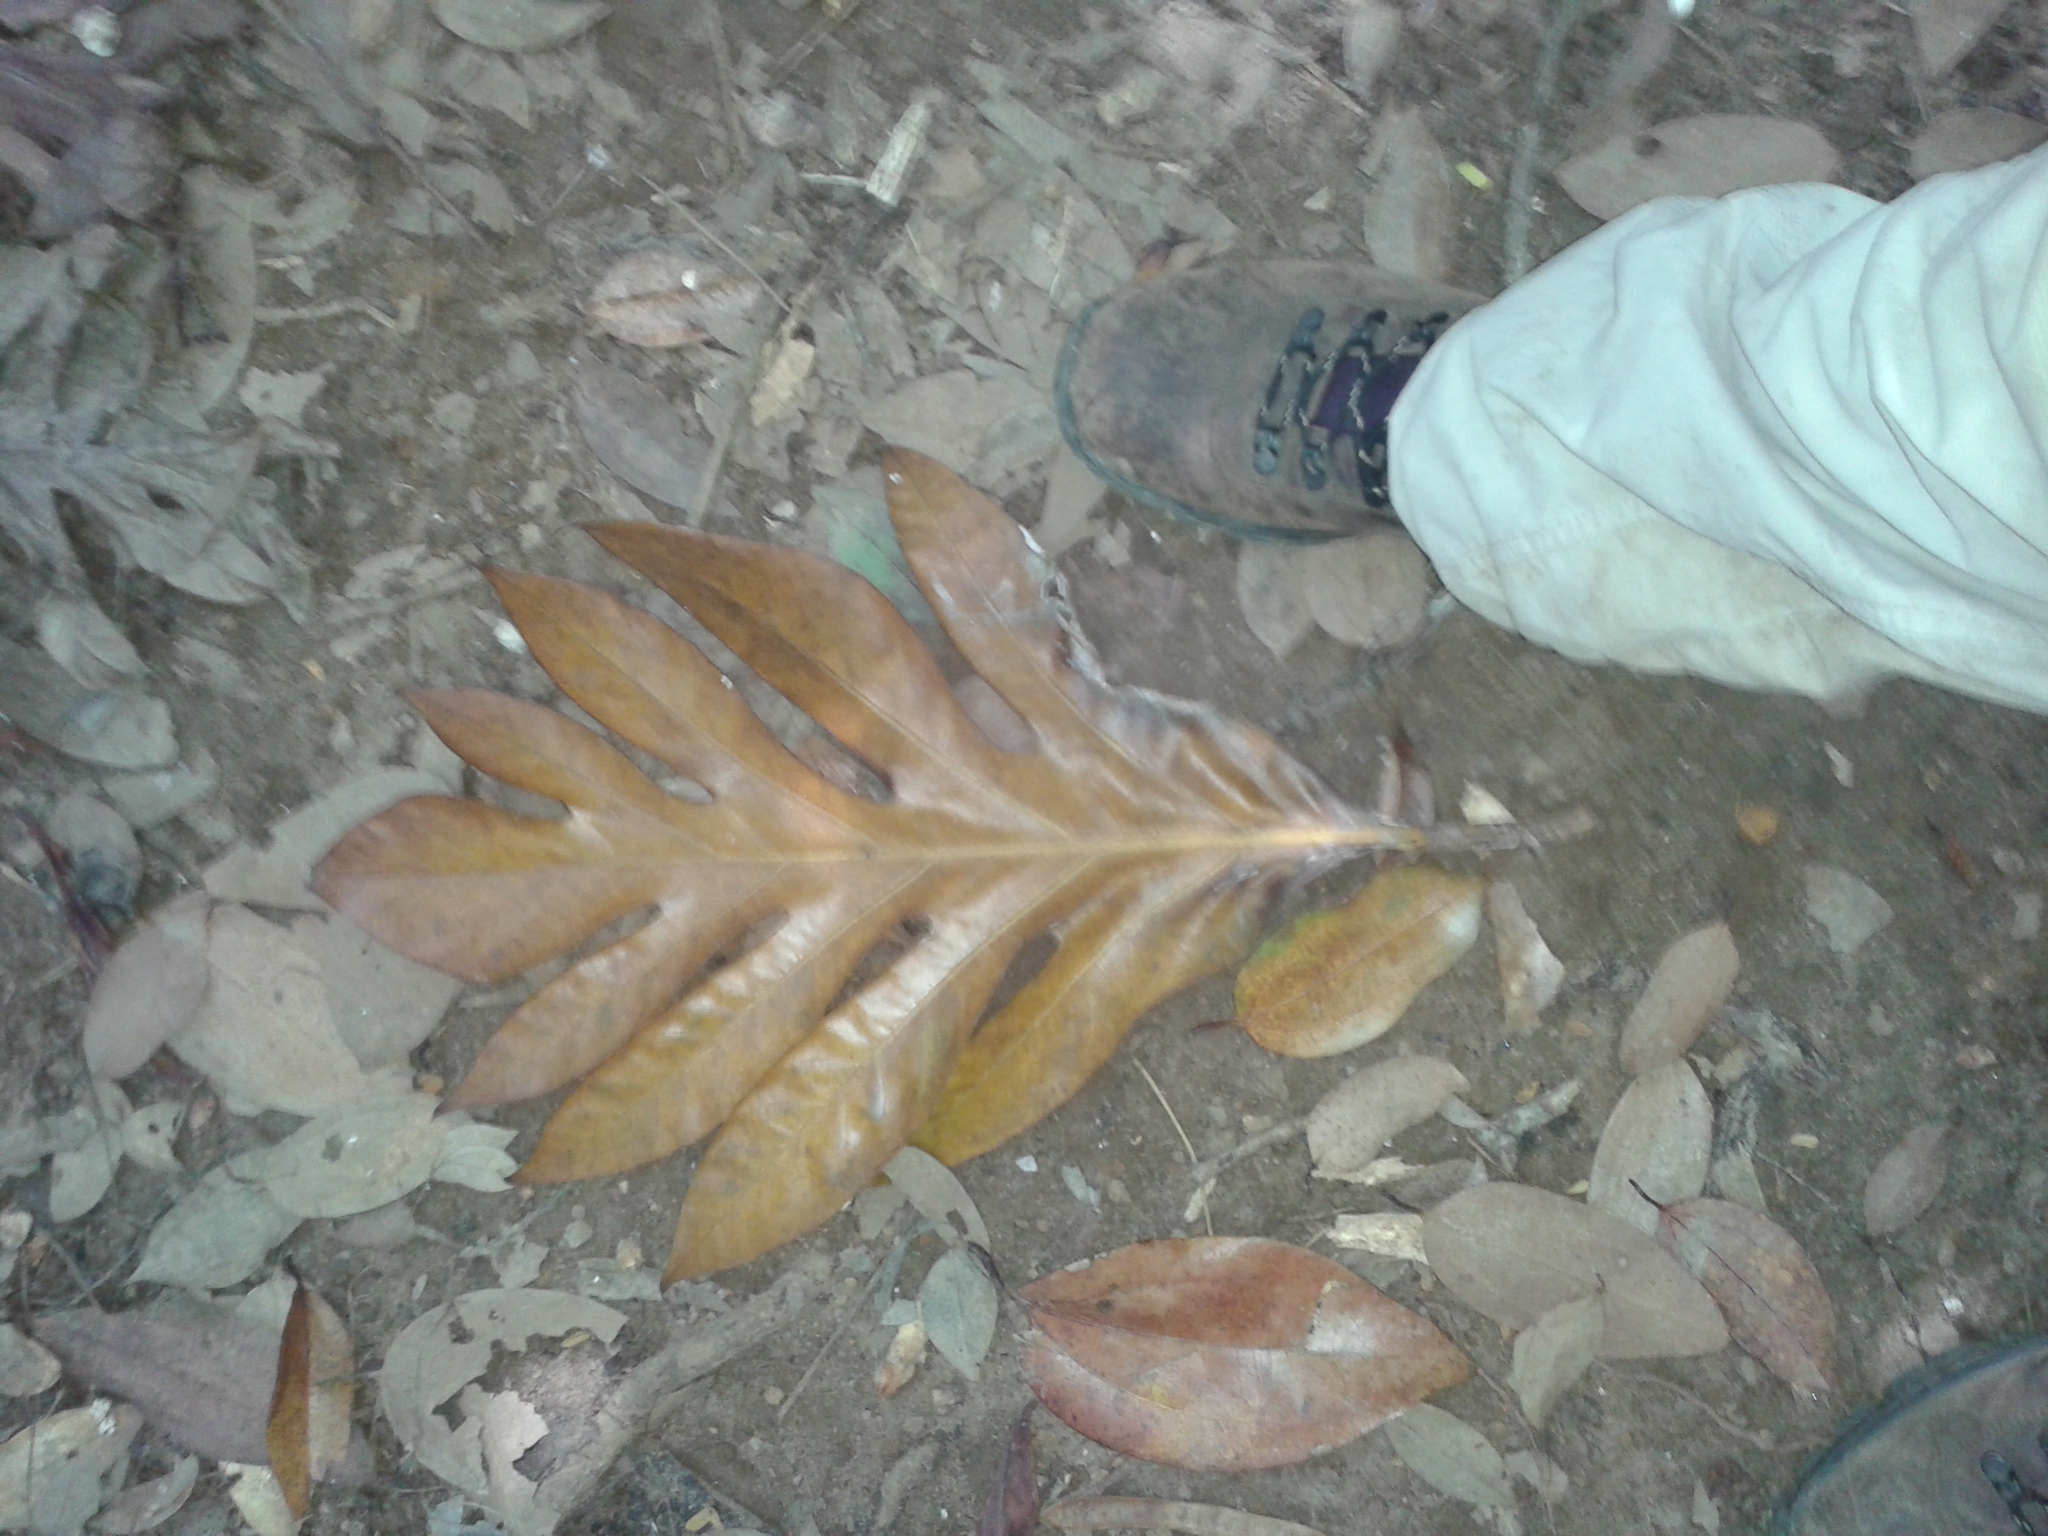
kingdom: Plantae
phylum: Tracheophyta
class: Magnoliopsida
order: Rosales
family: Moraceae
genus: Artocarpus
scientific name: Artocarpus altilis
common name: Breadfruit
